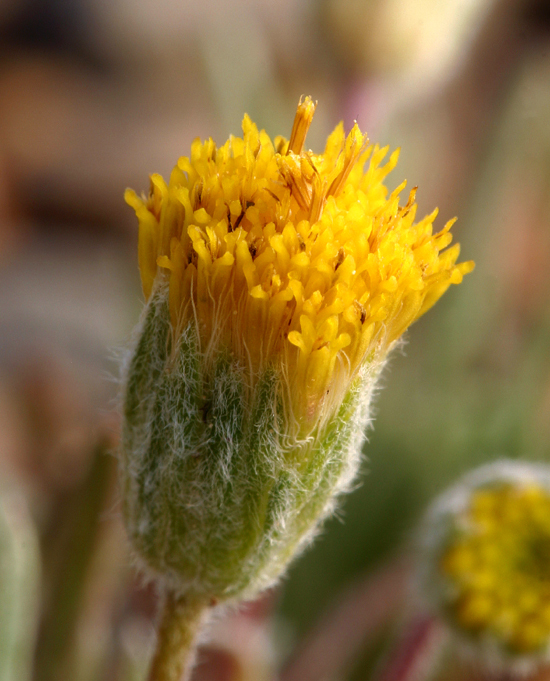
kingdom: Plantae
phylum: Tracheophyta
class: Magnoliopsida
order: Asterales
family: Asteraceae
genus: Erigeron
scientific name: Erigeron bloomeri
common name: Bloomer's fleabane
